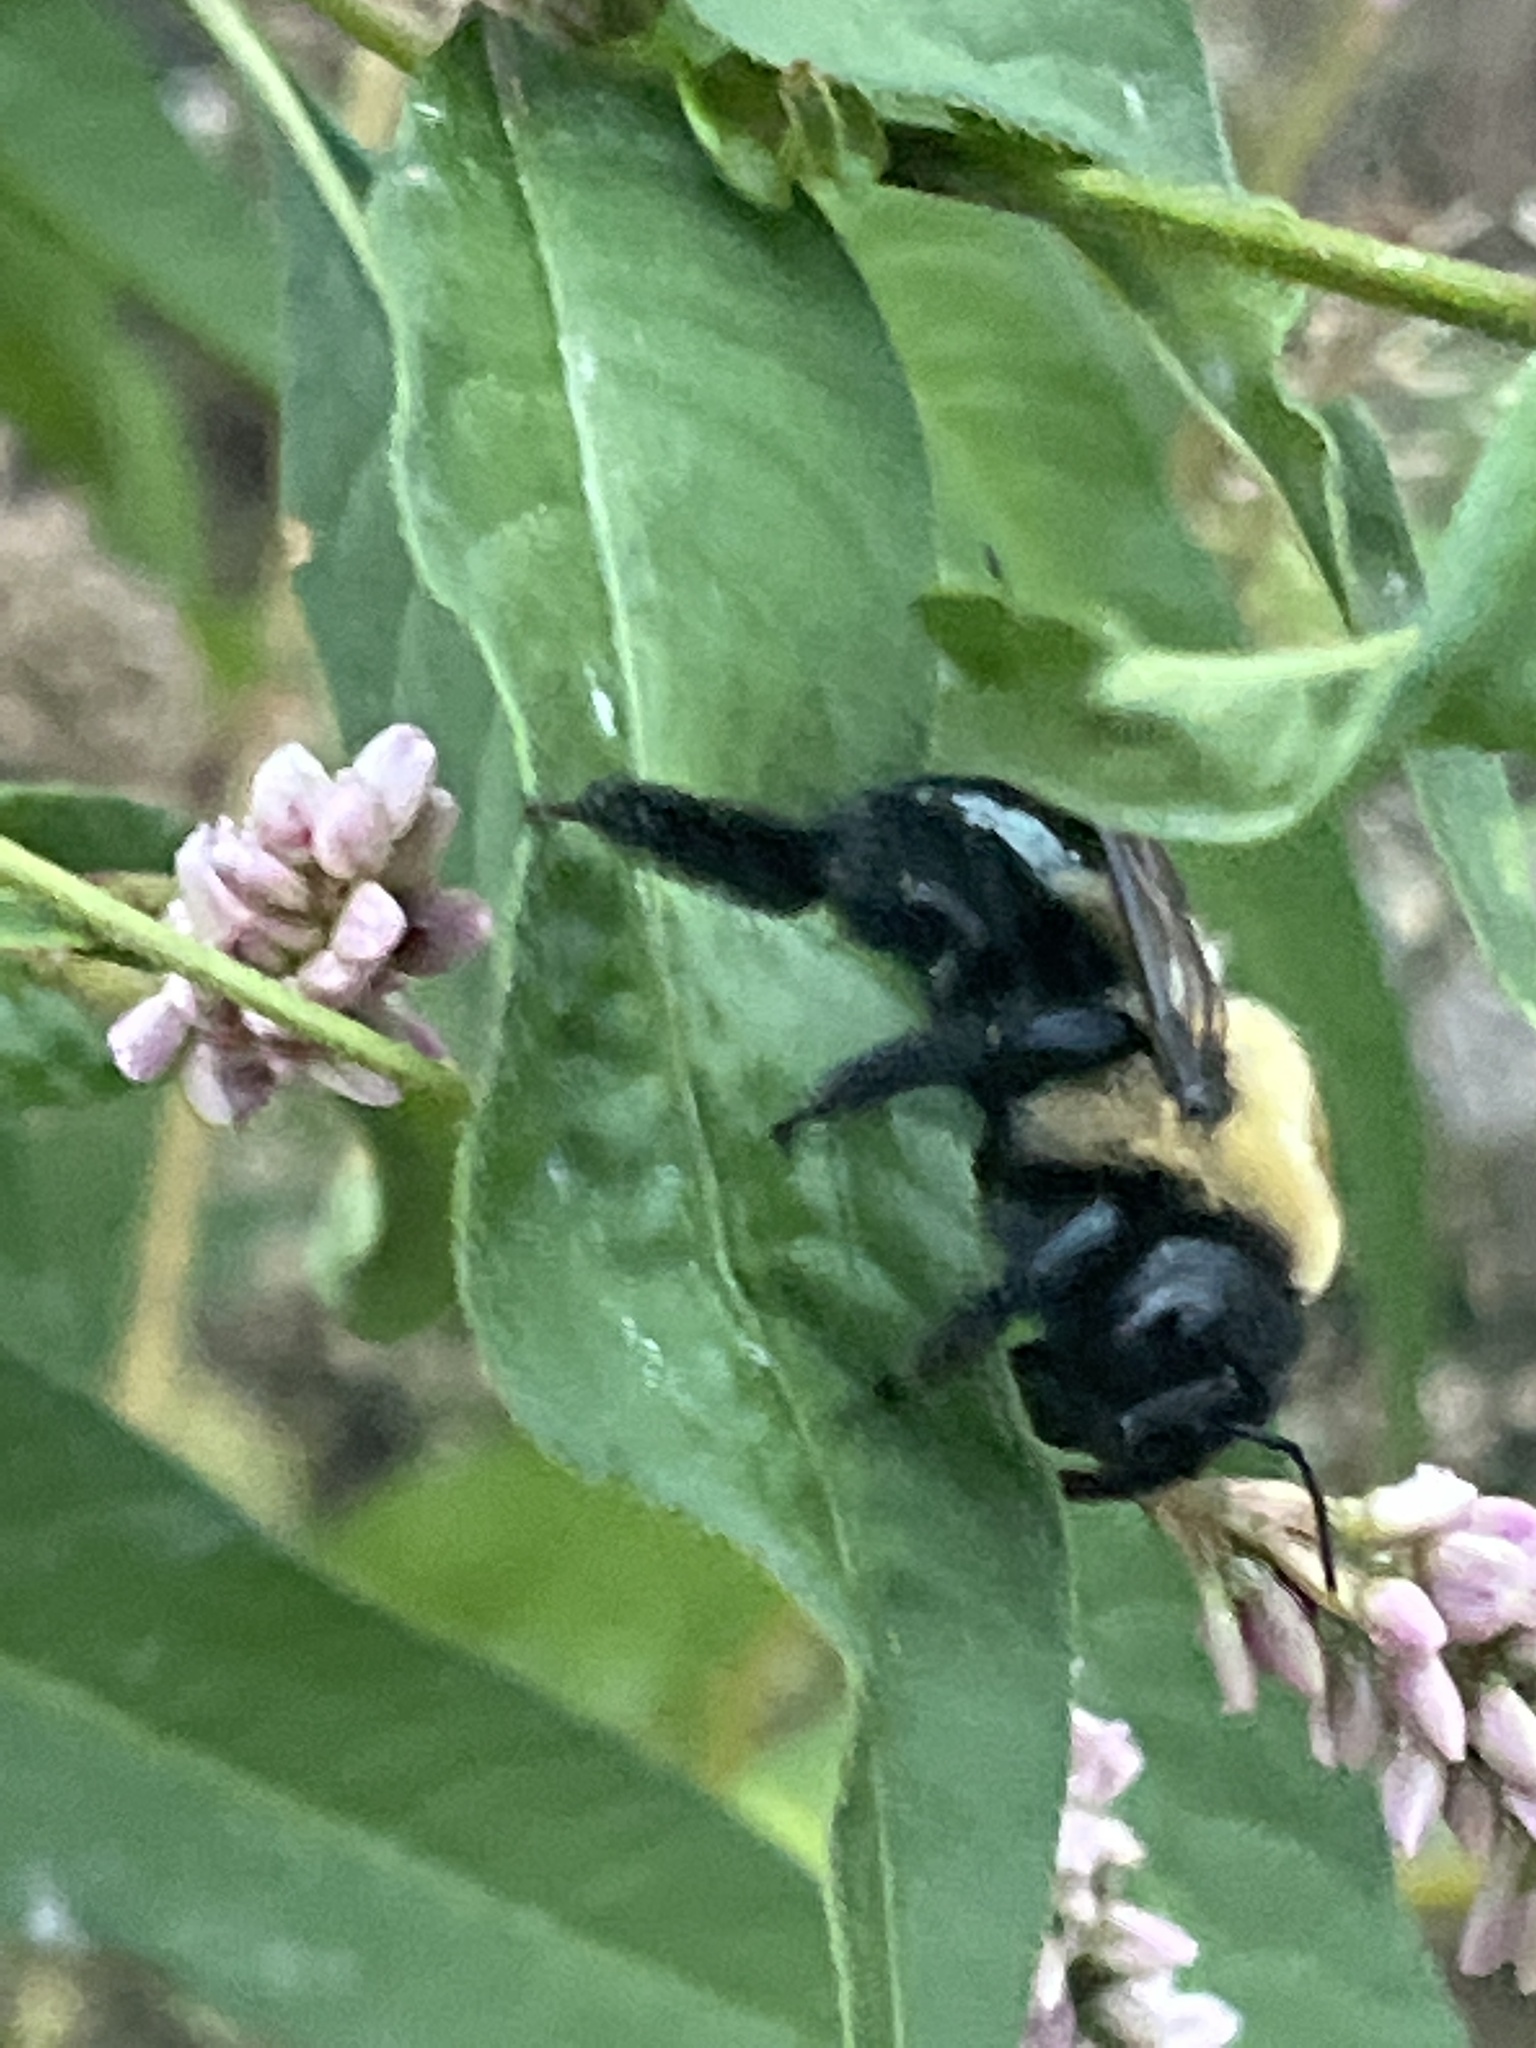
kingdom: Animalia
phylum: Arthropoda
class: Insecta
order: Hymenoptera
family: Apidae
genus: Xylocopa
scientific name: Xylocopa virginica
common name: Carpenter bee
